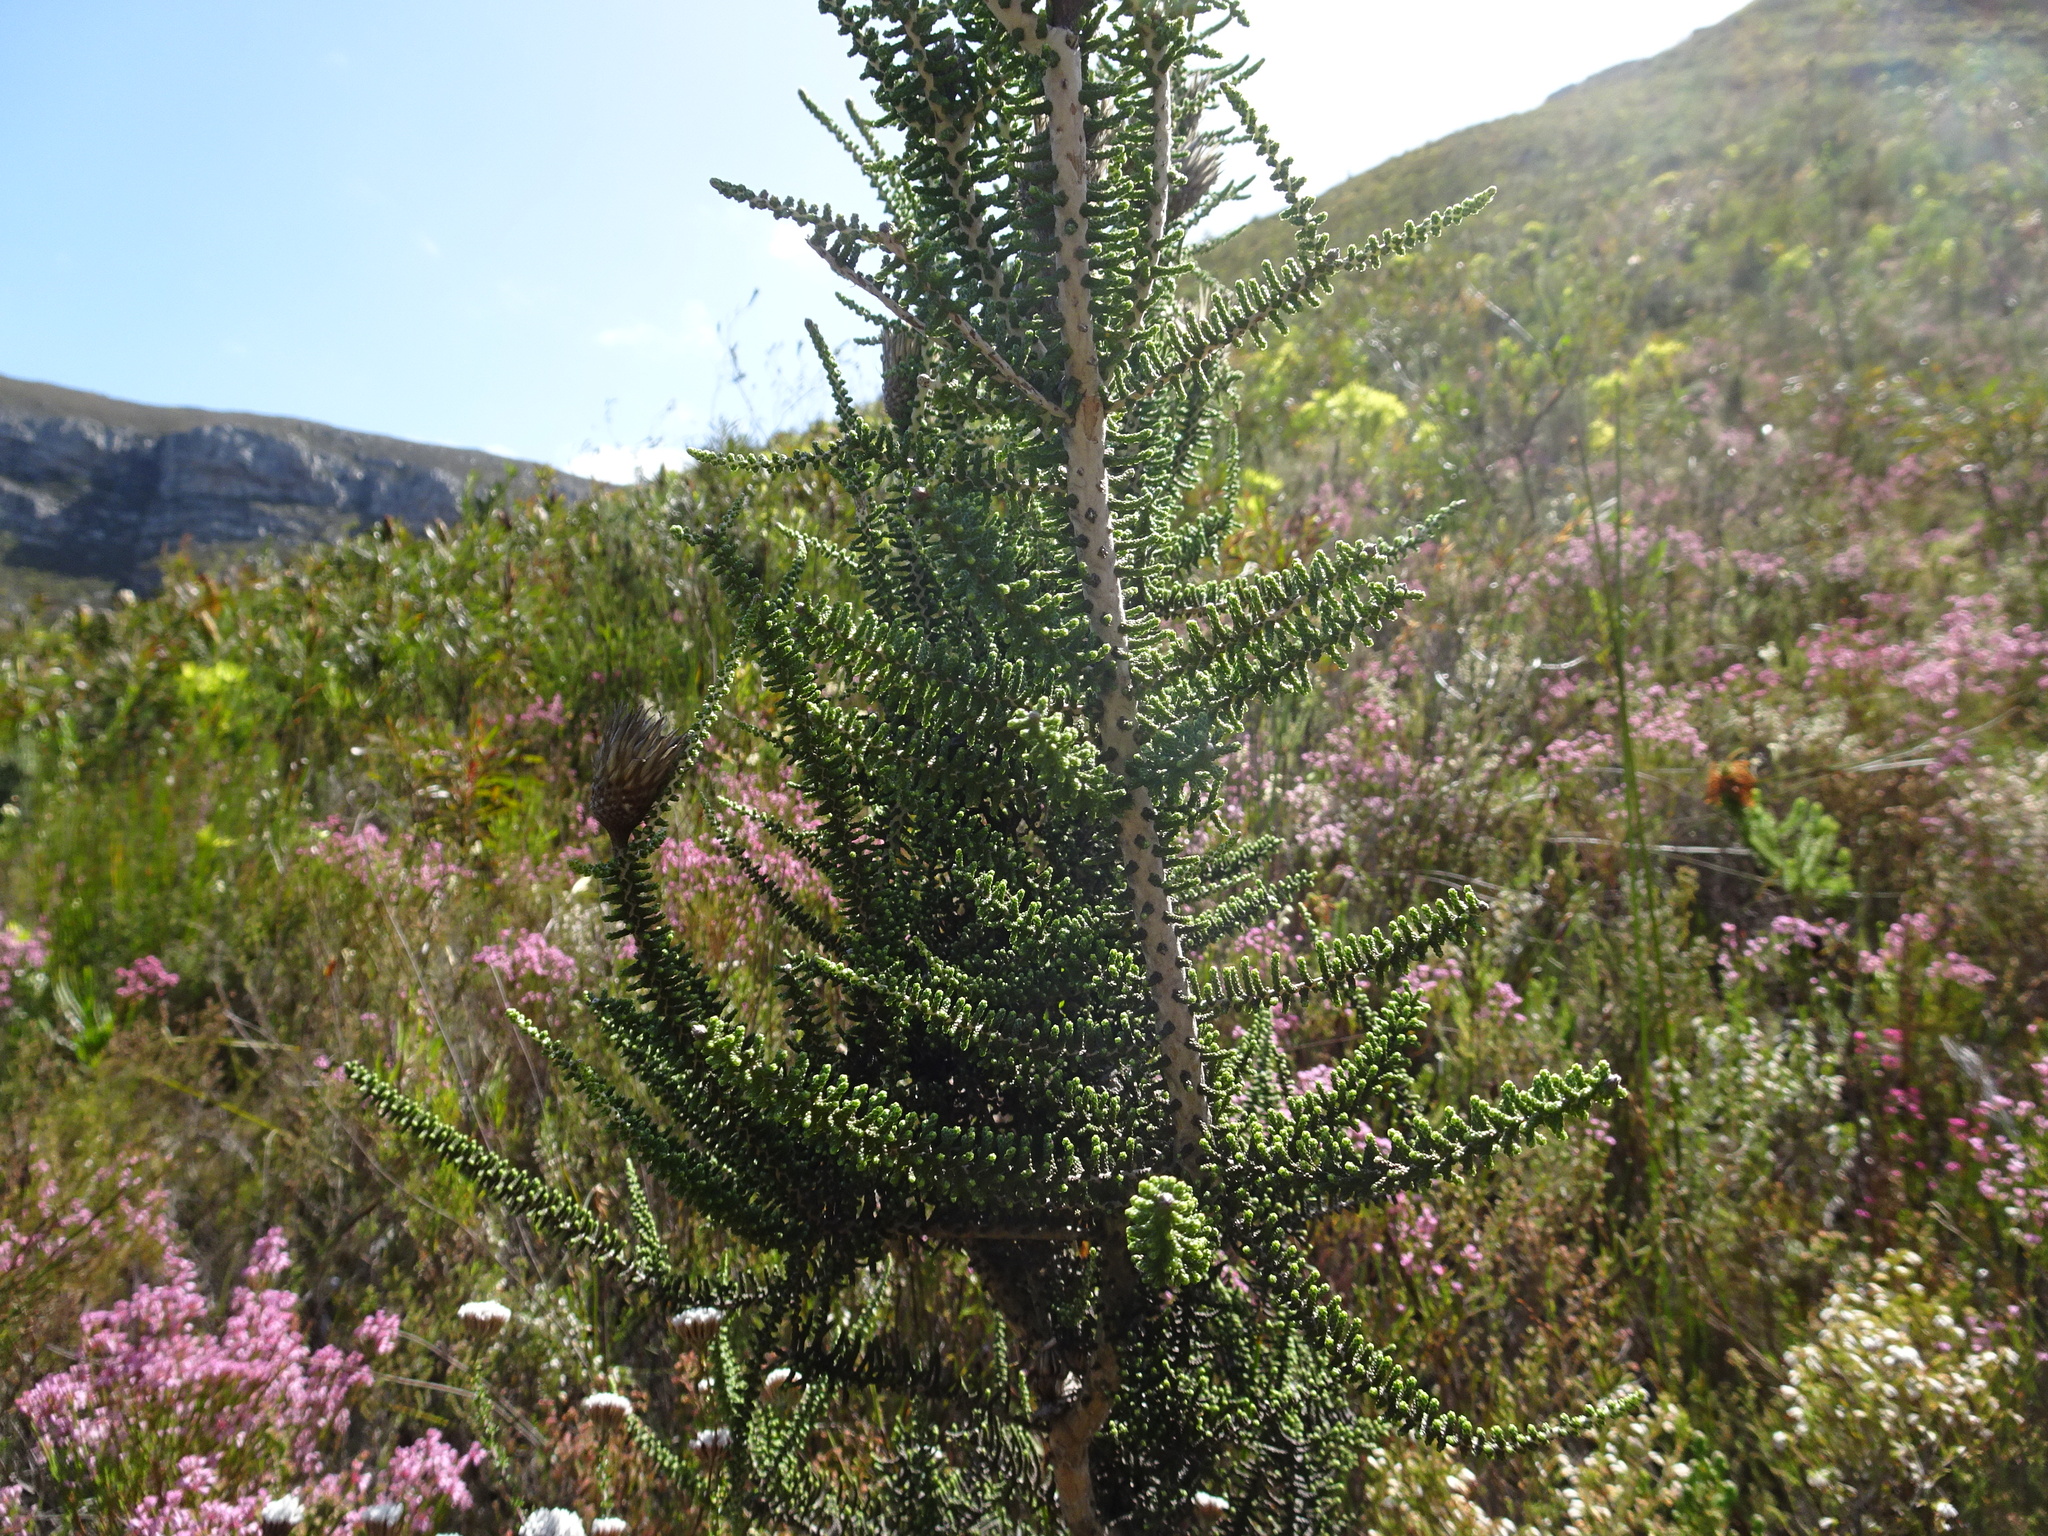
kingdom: Plantae
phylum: Tracheophyta
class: Magnoliopsida
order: Asterales
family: Asteraceae
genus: Phaenocoma
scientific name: Phaenocoma prolifera
